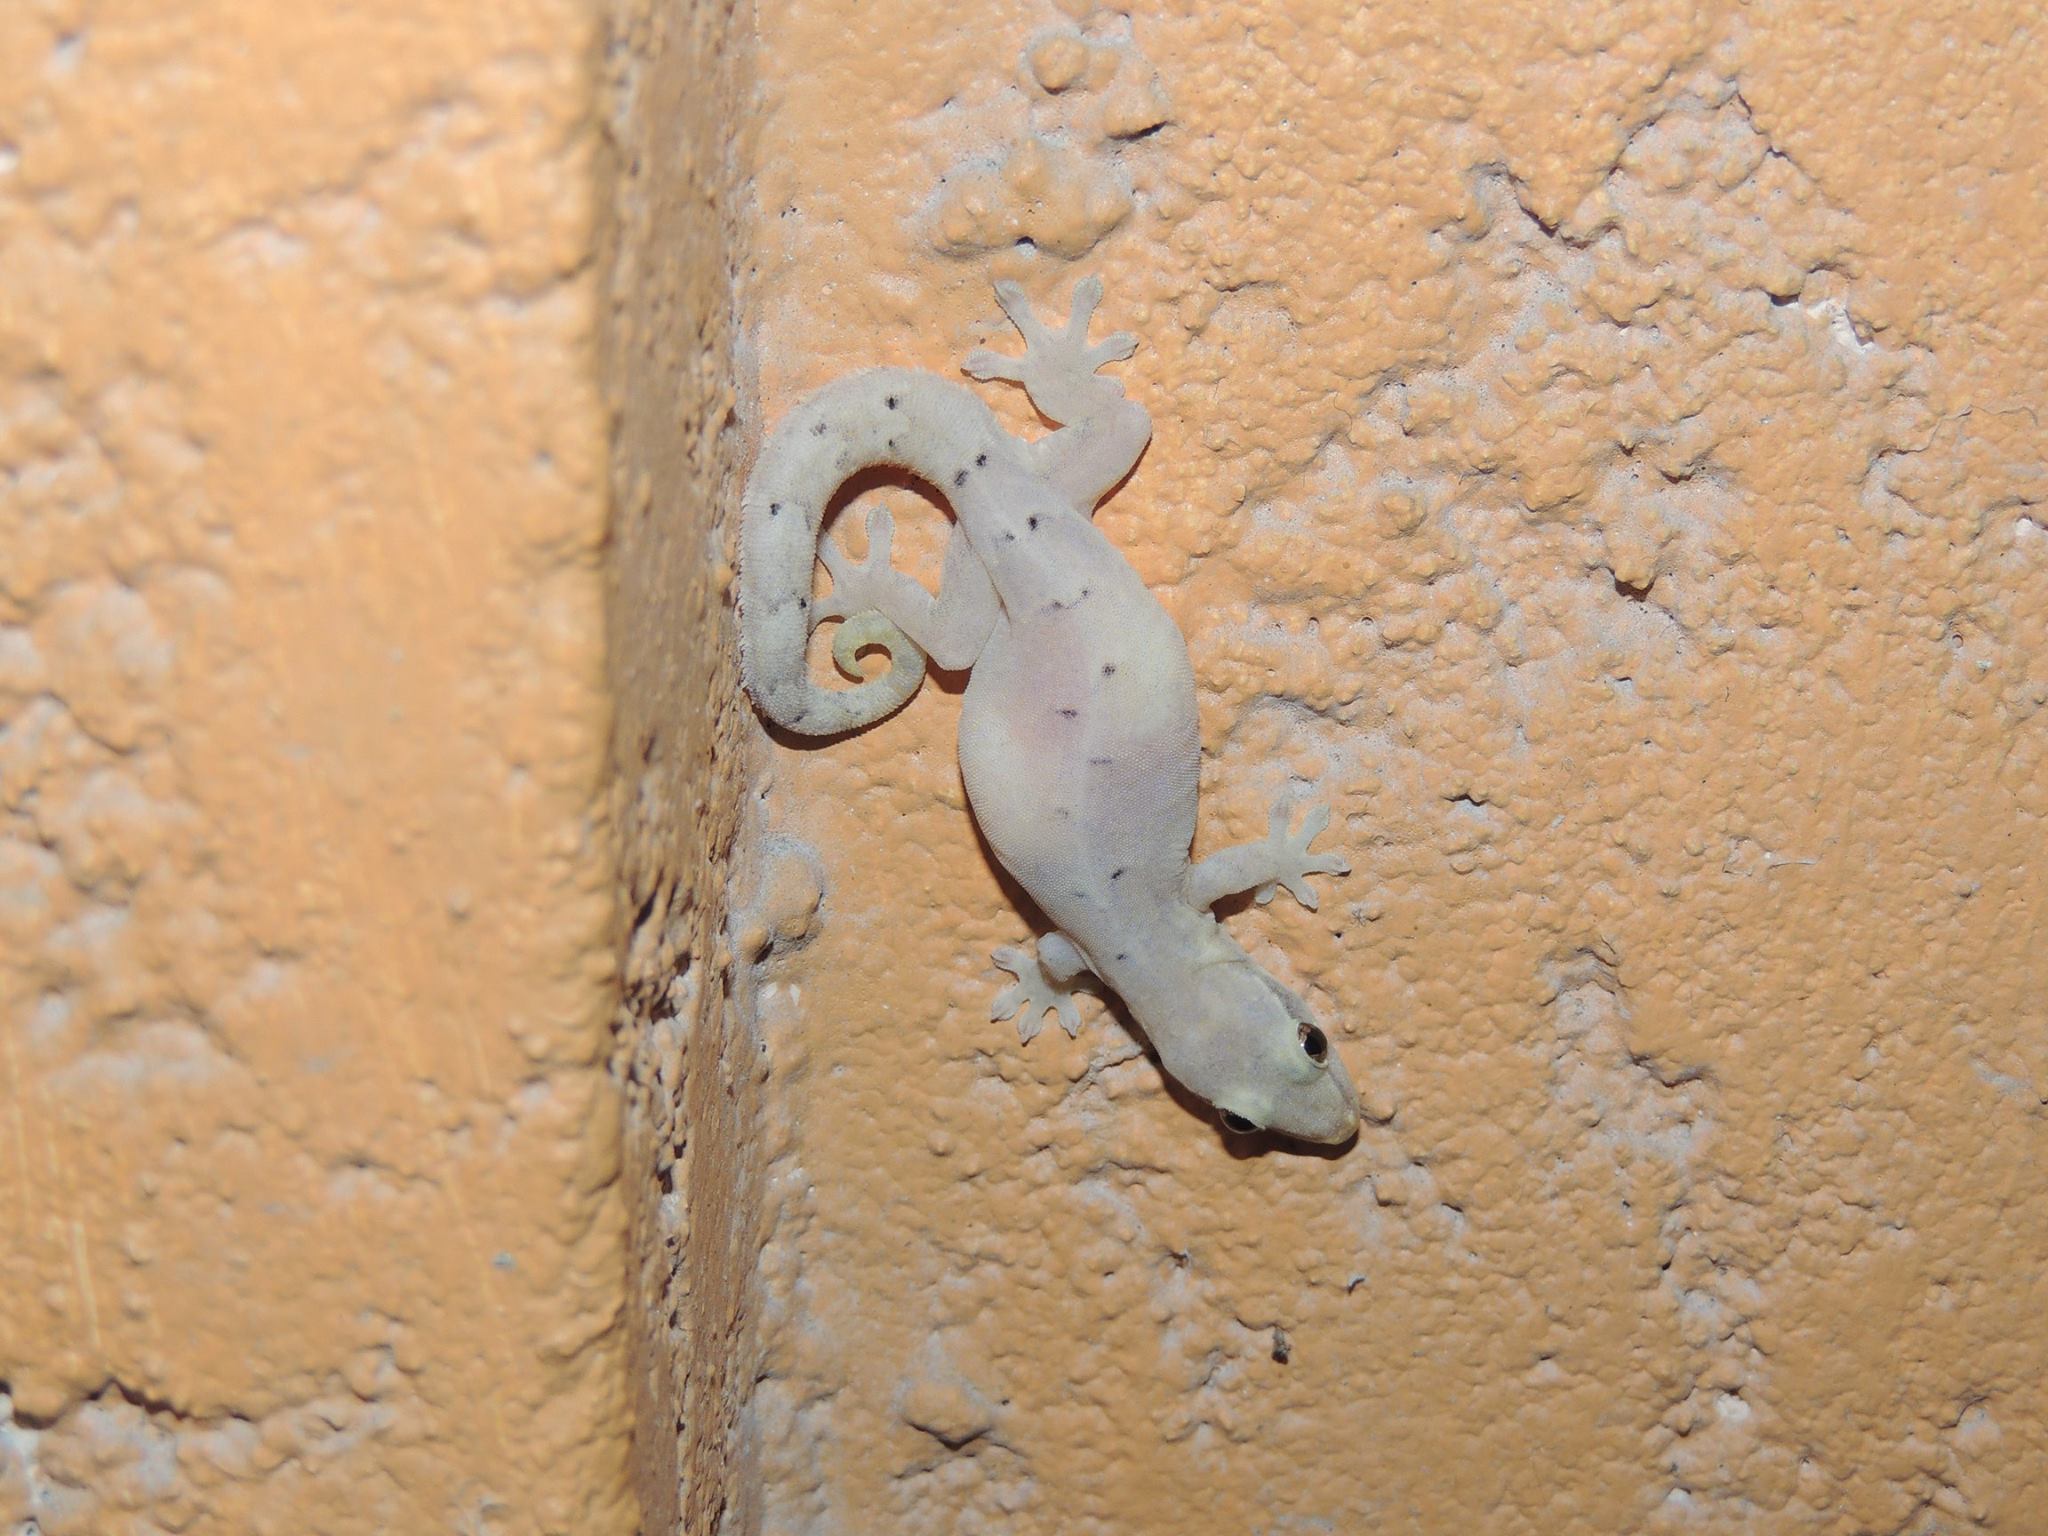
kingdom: Animalia
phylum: Chordata
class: Squamata
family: Gekkonidae
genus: Lepidodactylus
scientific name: Lepidodactylus lugubris
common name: Mourning gecko
